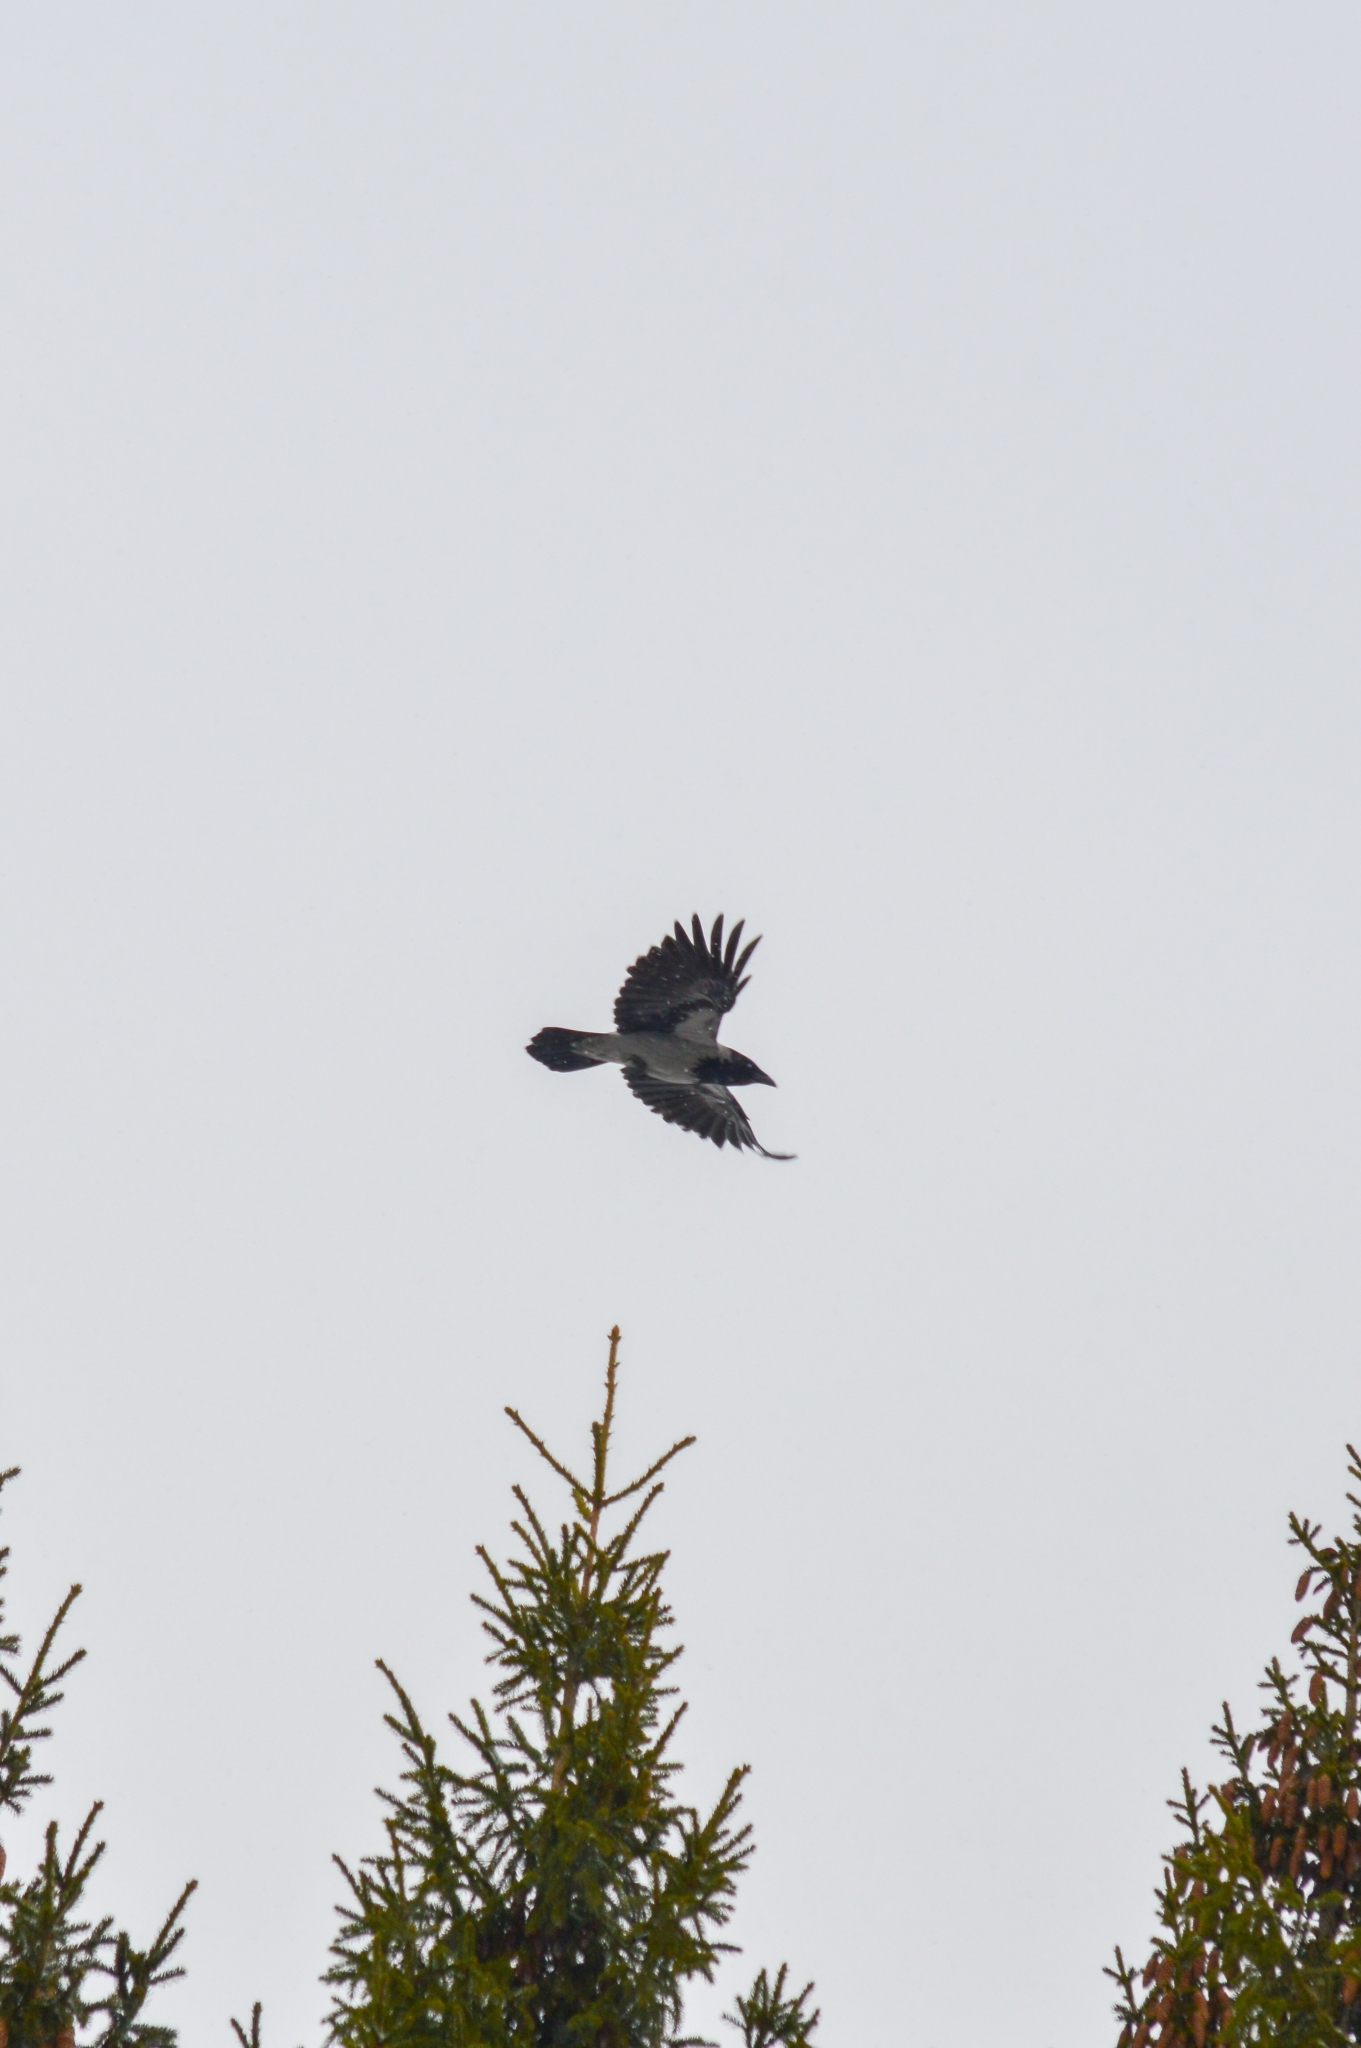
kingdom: Animalia
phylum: Chordata
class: Aves
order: Passeriformes
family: Corvidae
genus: Corvus
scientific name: Corvus cornix
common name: Hooded crow
